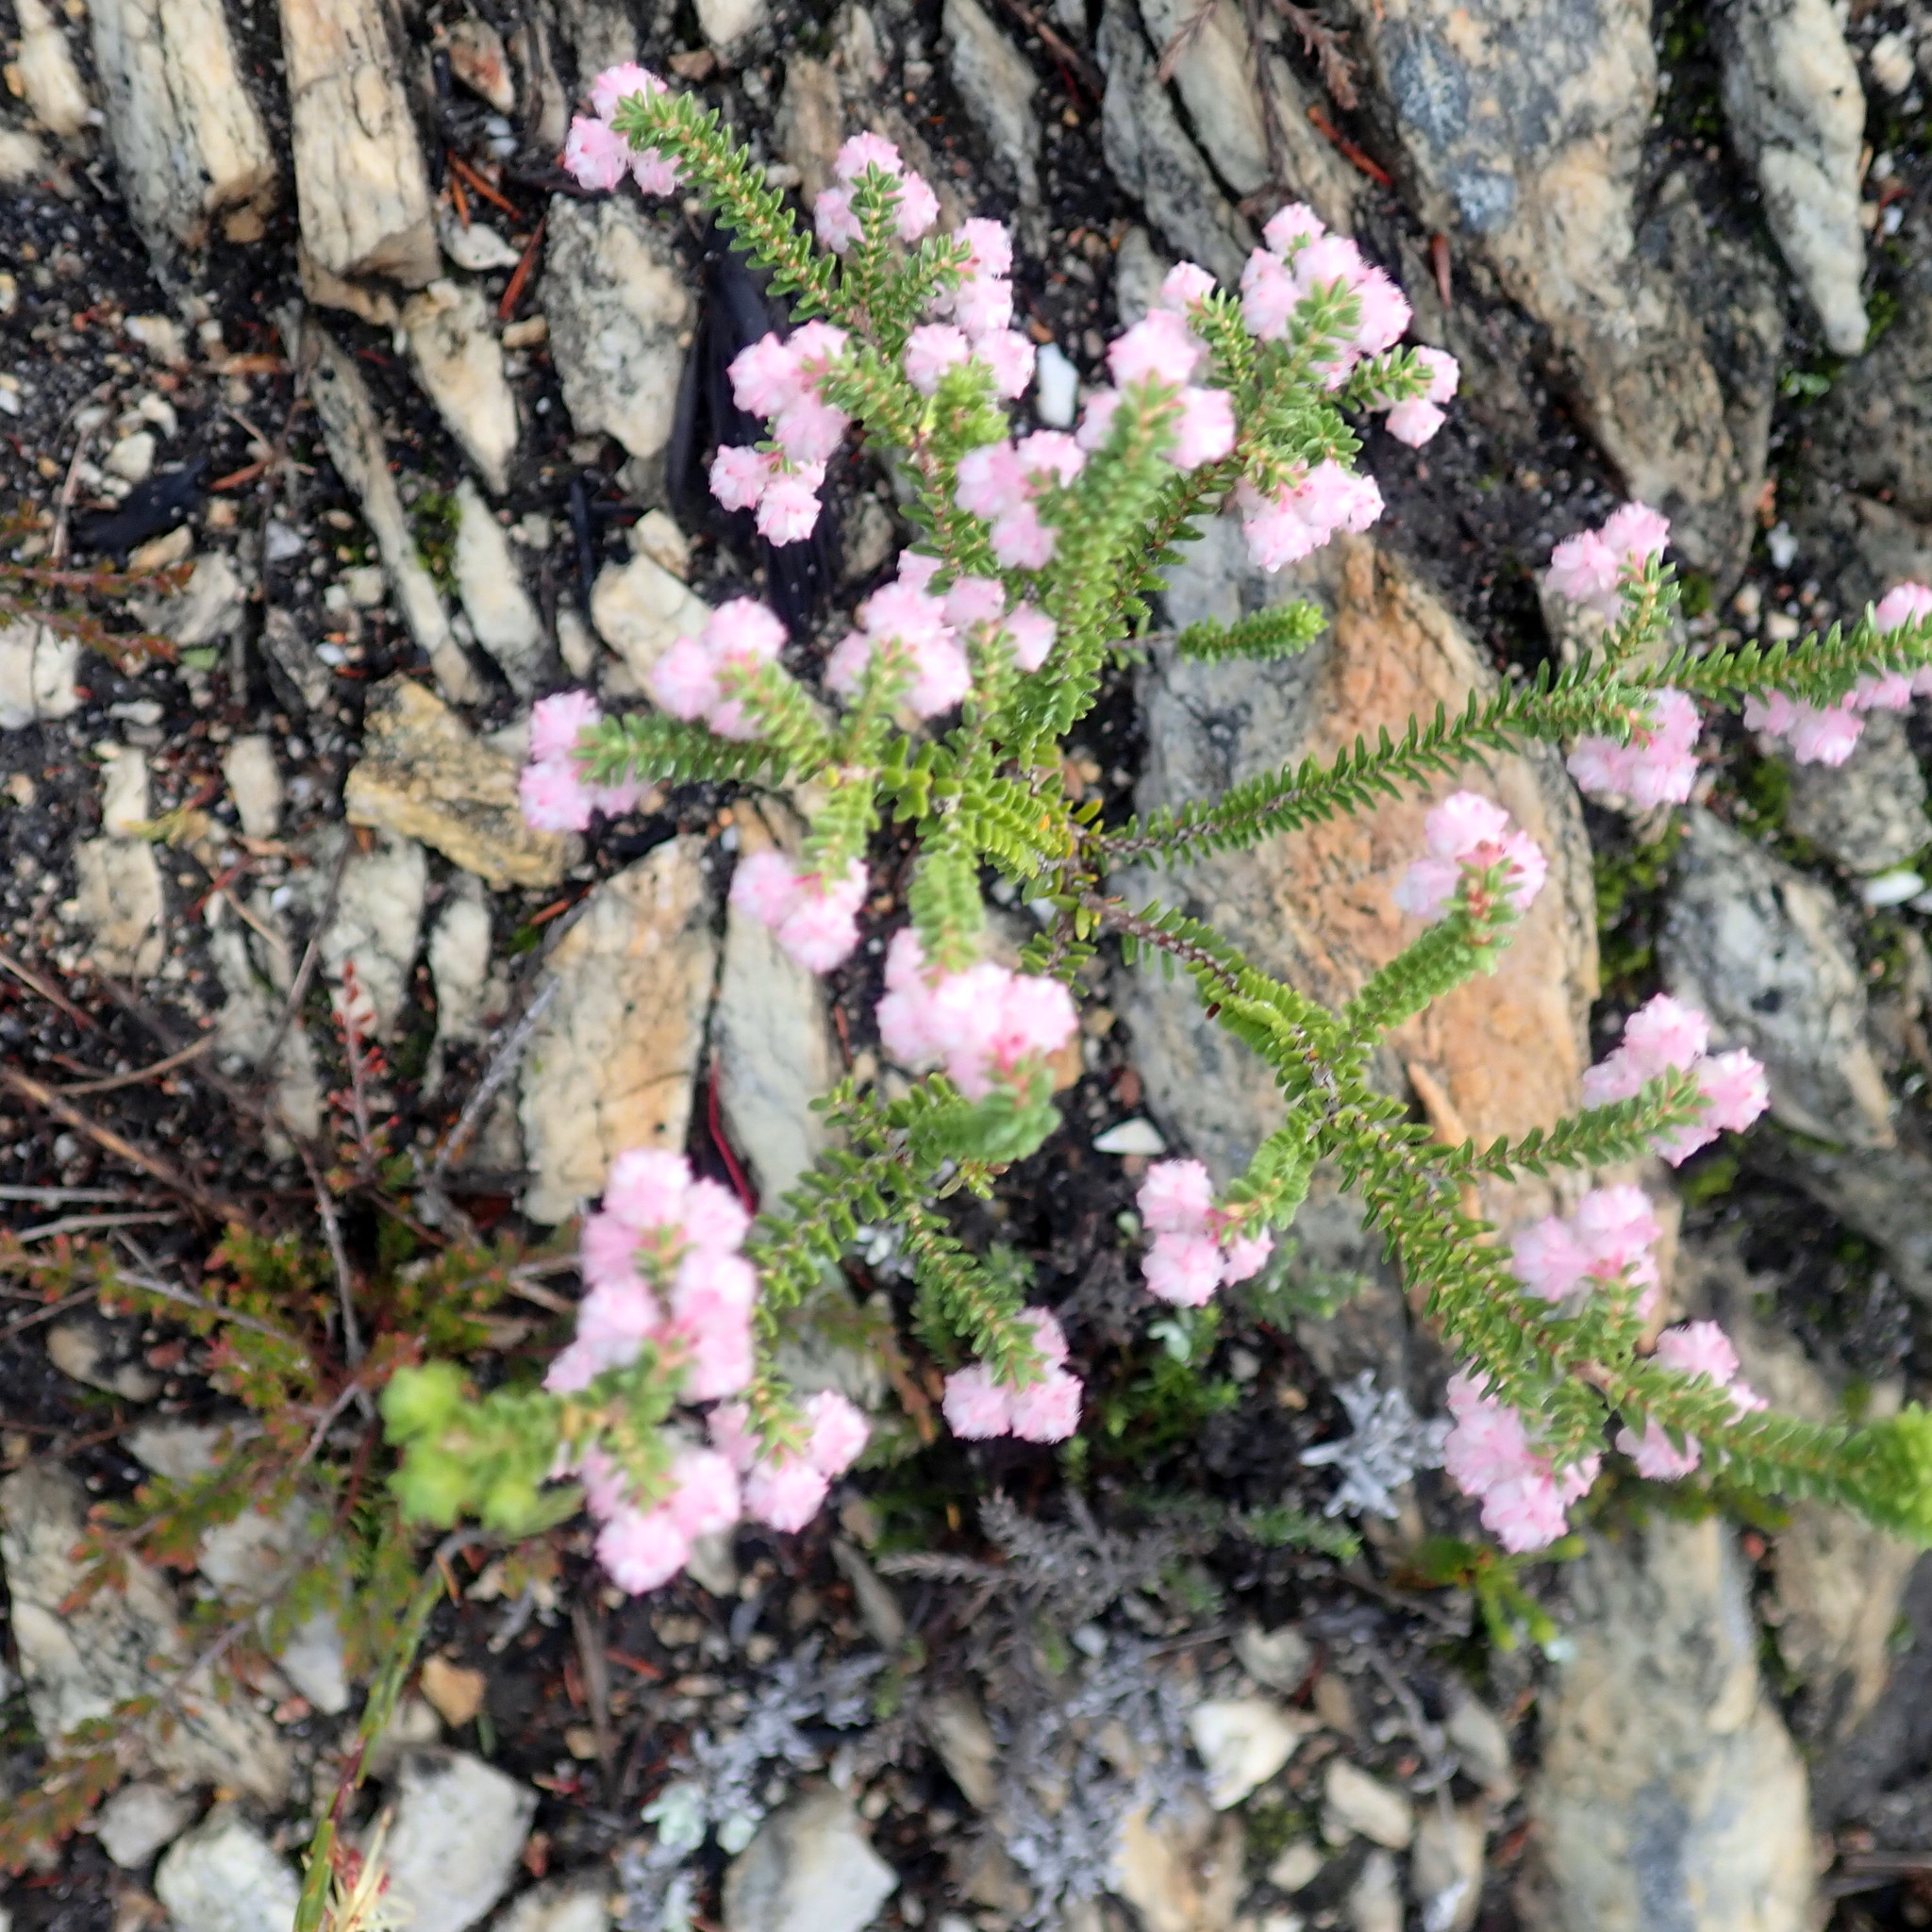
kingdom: Plantae
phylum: Tracheophyta
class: Magnoliopsida
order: Ericales
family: Ericaceae
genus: Erica
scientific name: Erica fimbriata
